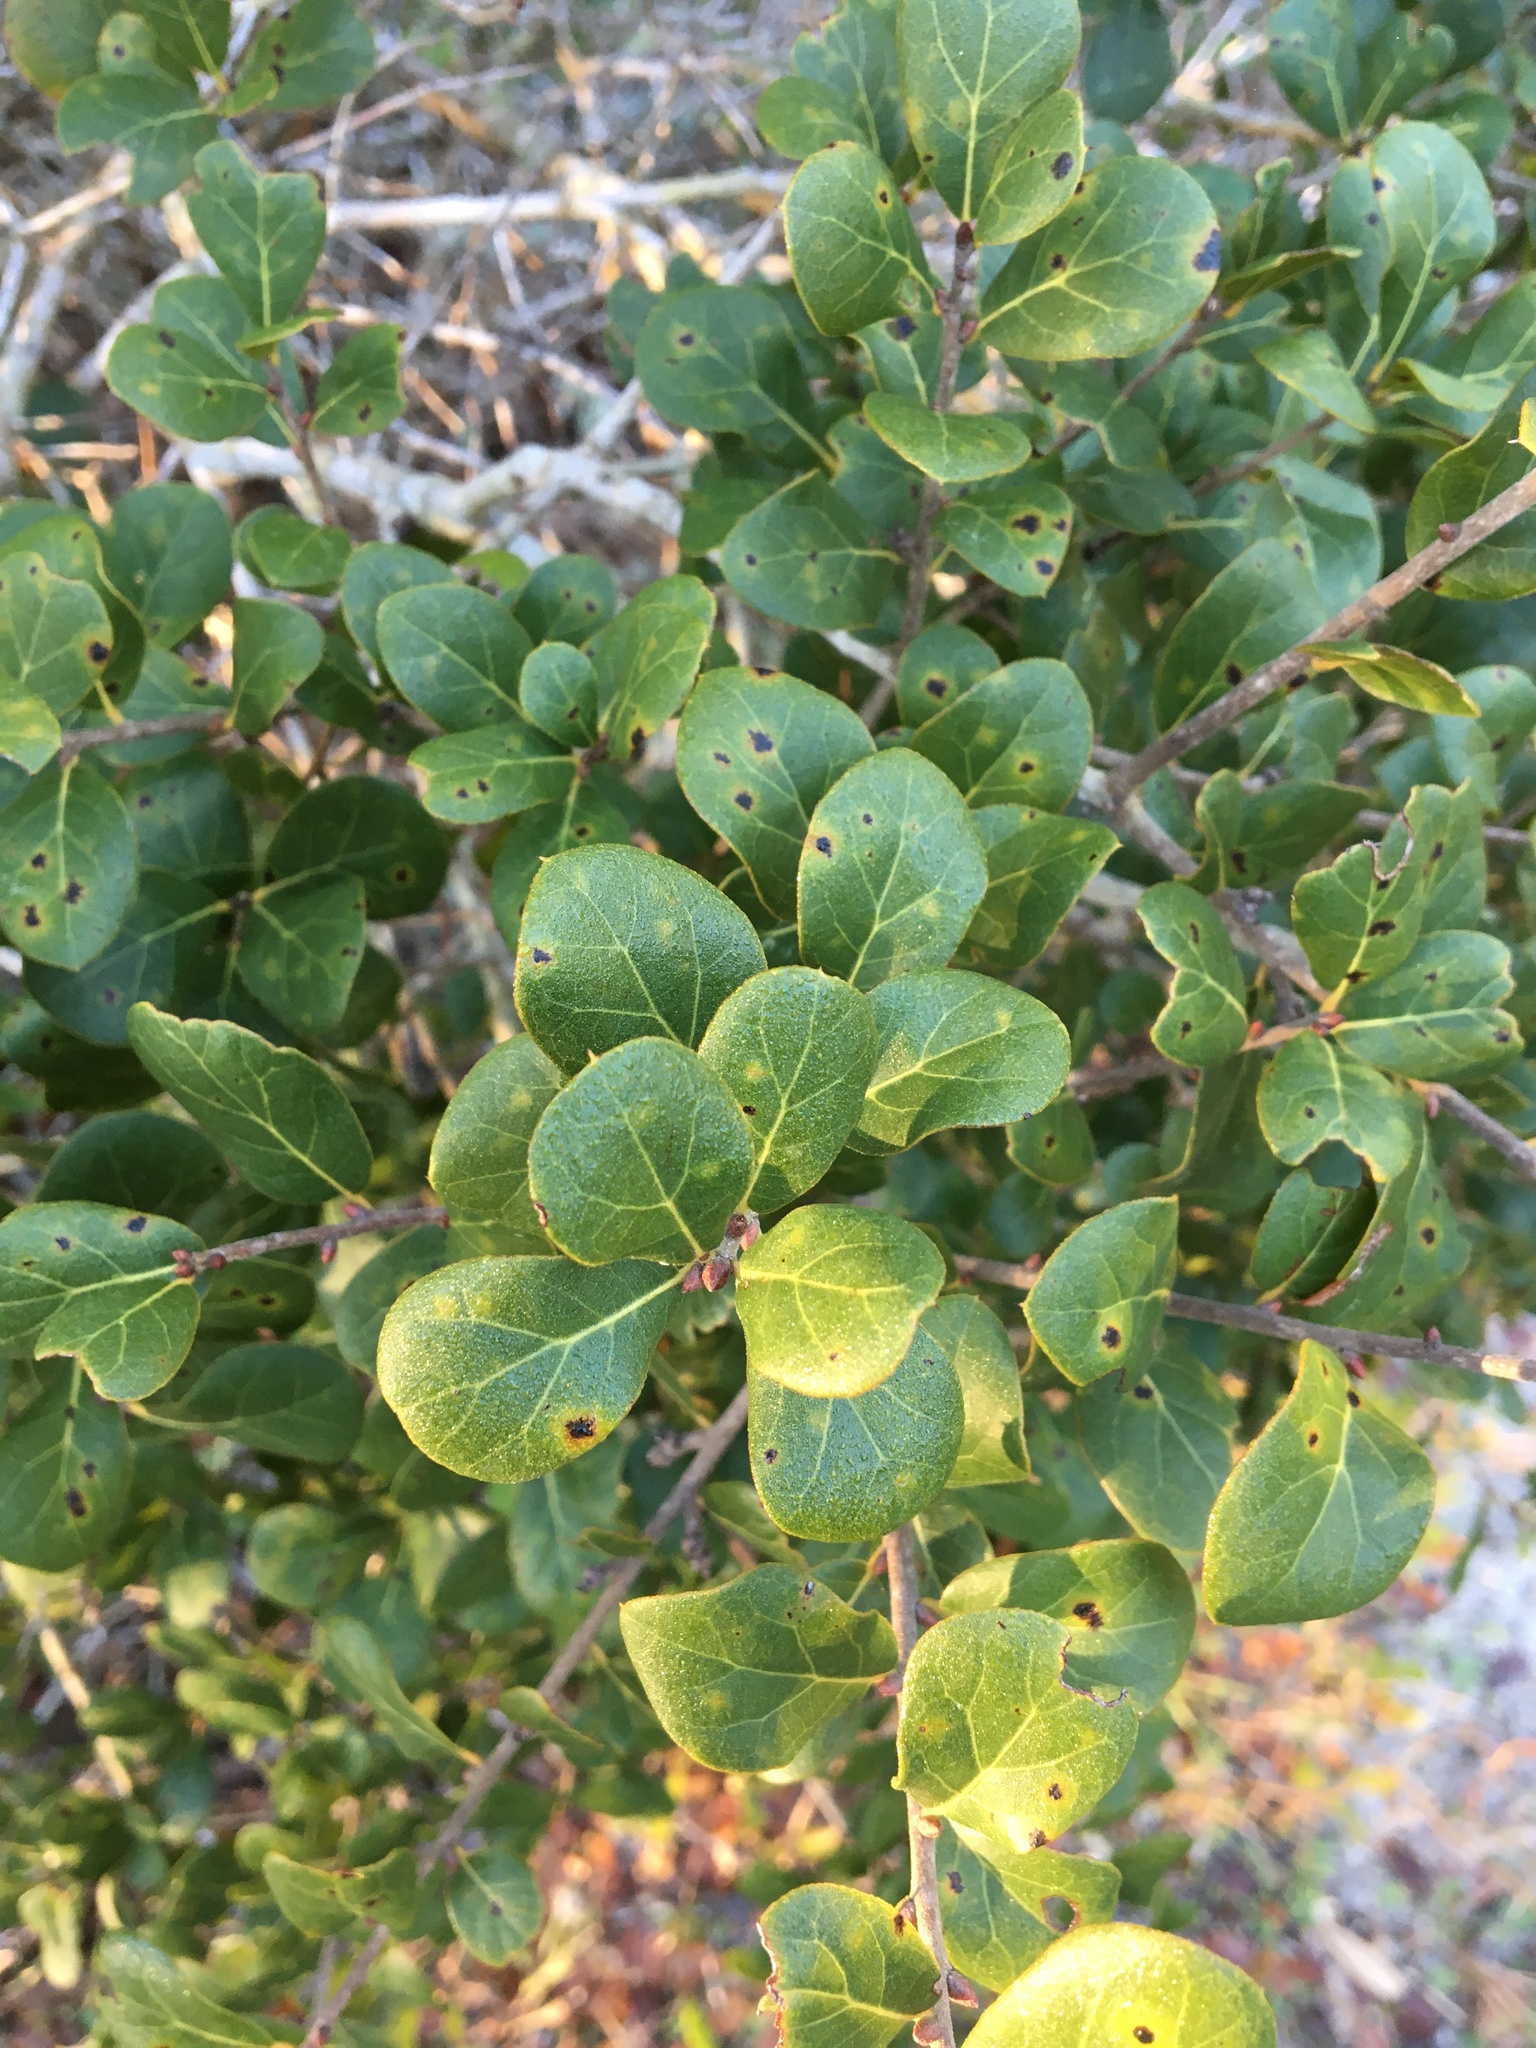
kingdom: Plantae
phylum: Tracheophyta
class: Magnoliopsida
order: Fagales
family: Fagaceae
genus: Quercus
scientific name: Quercus myrtifolia
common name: Myrtle oak
